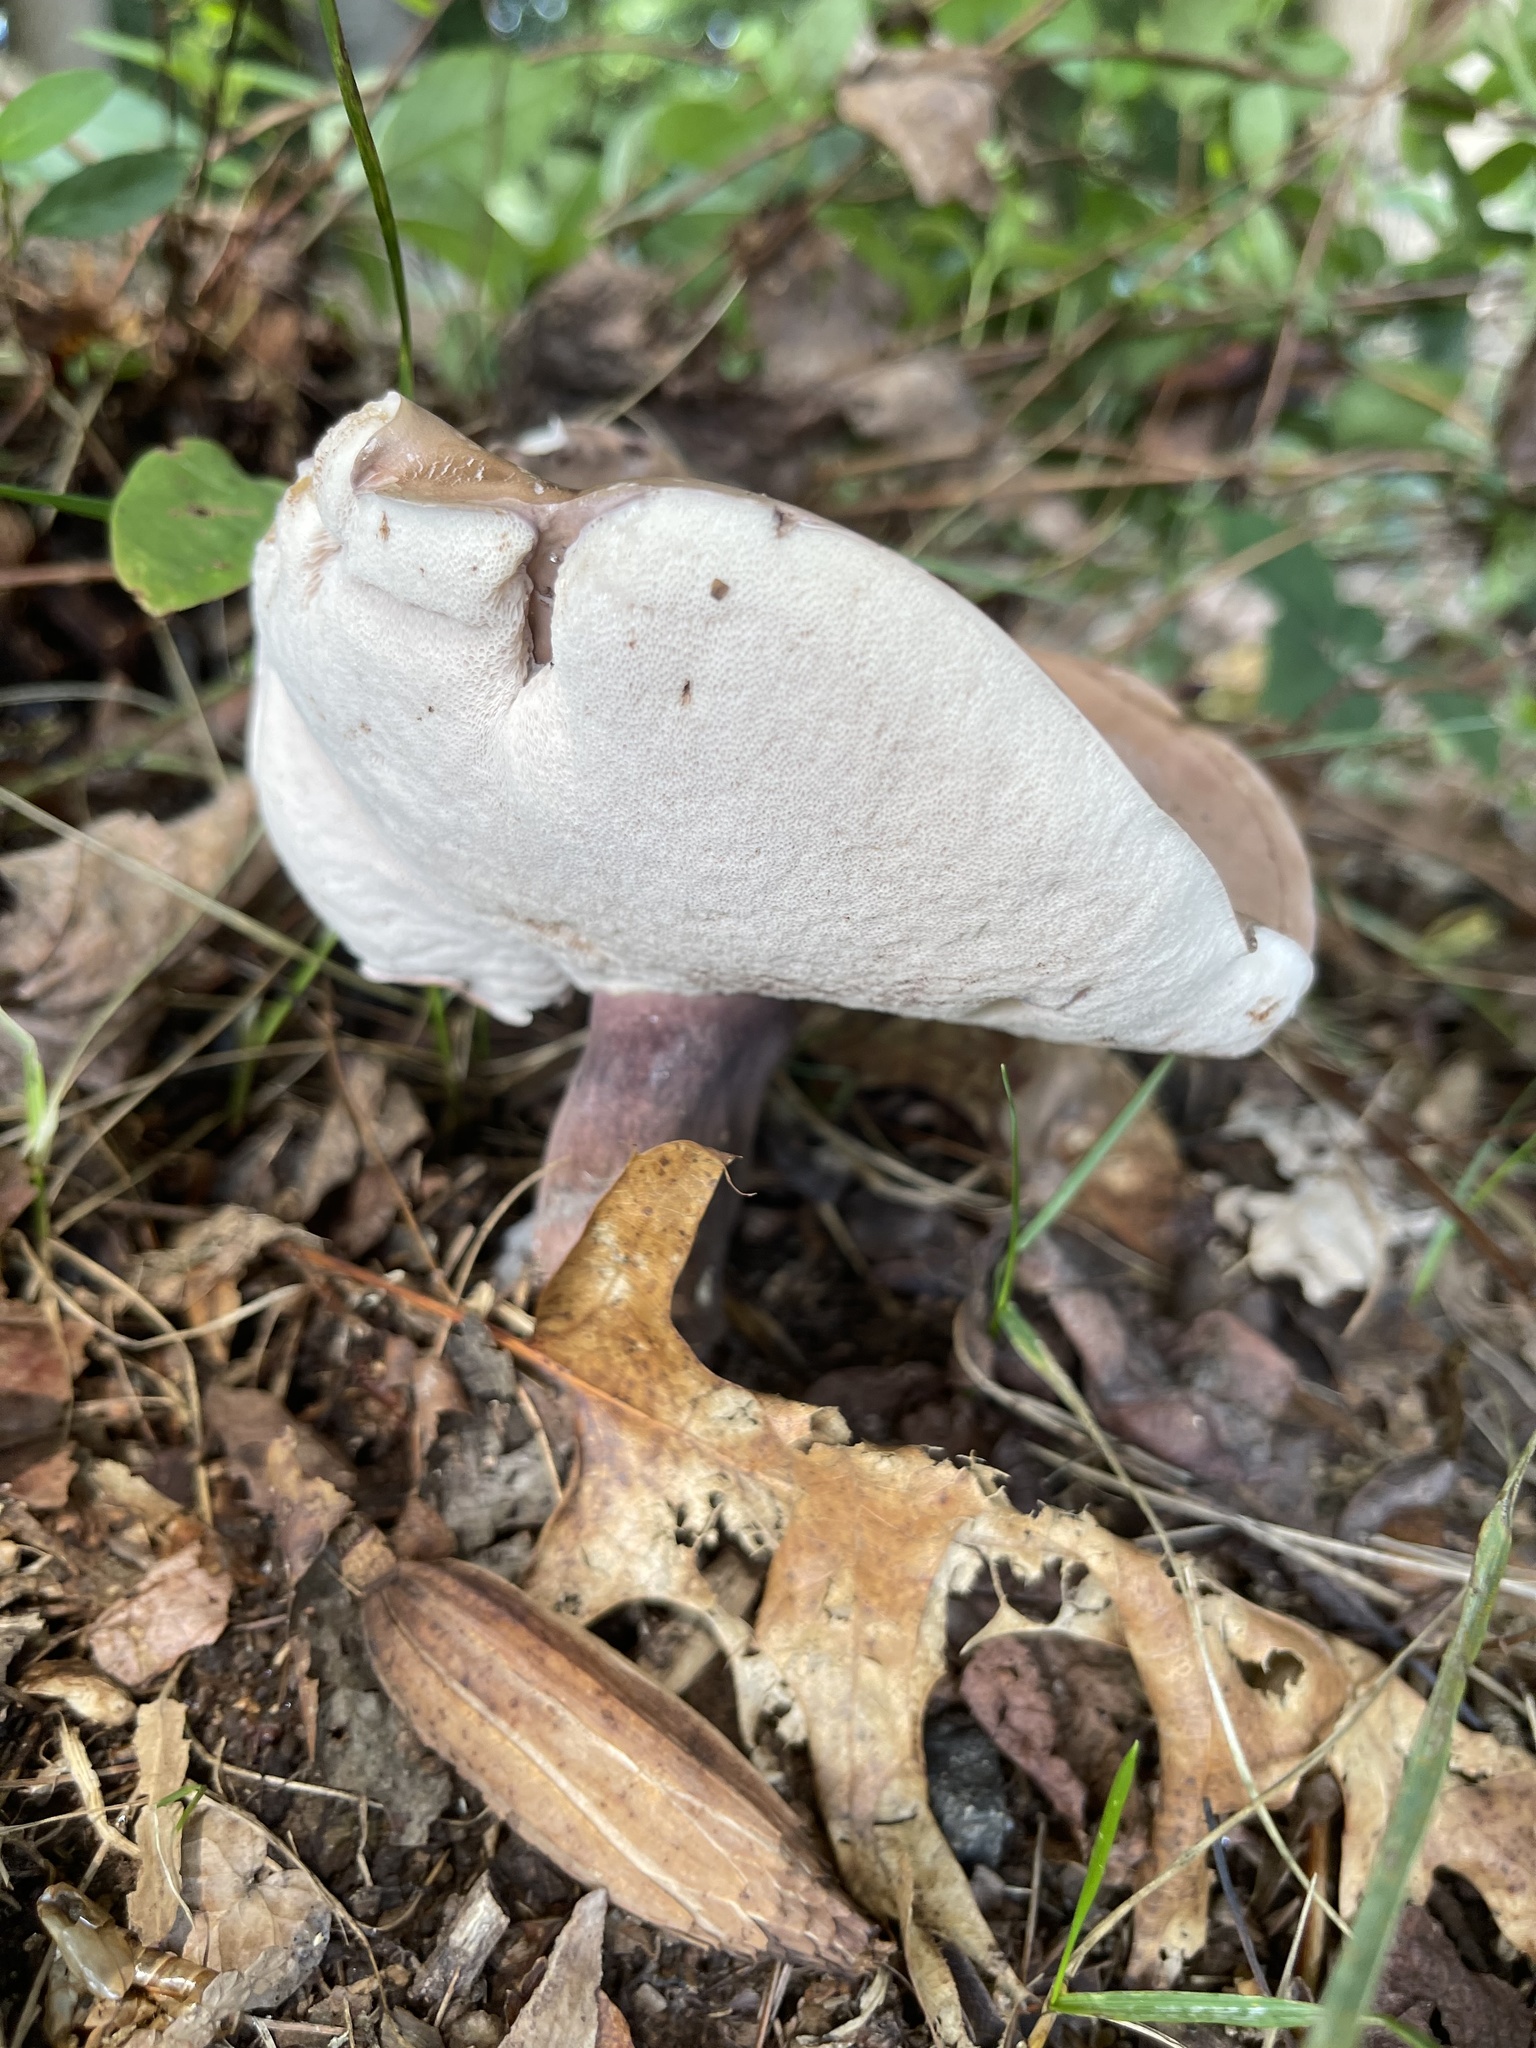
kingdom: Fungi
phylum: Basidiomycota
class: Agaricomycetes
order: Boletales
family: Boletaceae
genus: Tylopilus
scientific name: Tylopilus plumbeoviolaceus
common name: Violet gray bolete
